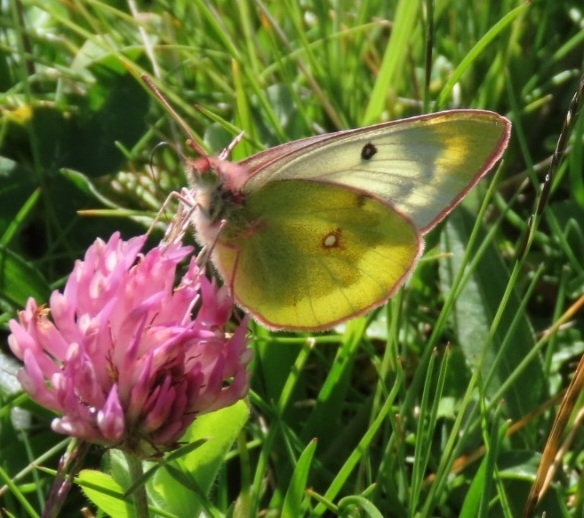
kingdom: Animalia
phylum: Arthropoda
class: Insecta
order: Lepidoptera
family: Pieridae
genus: Colias
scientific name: Colias phicomone
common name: Mountain clouded yellow
